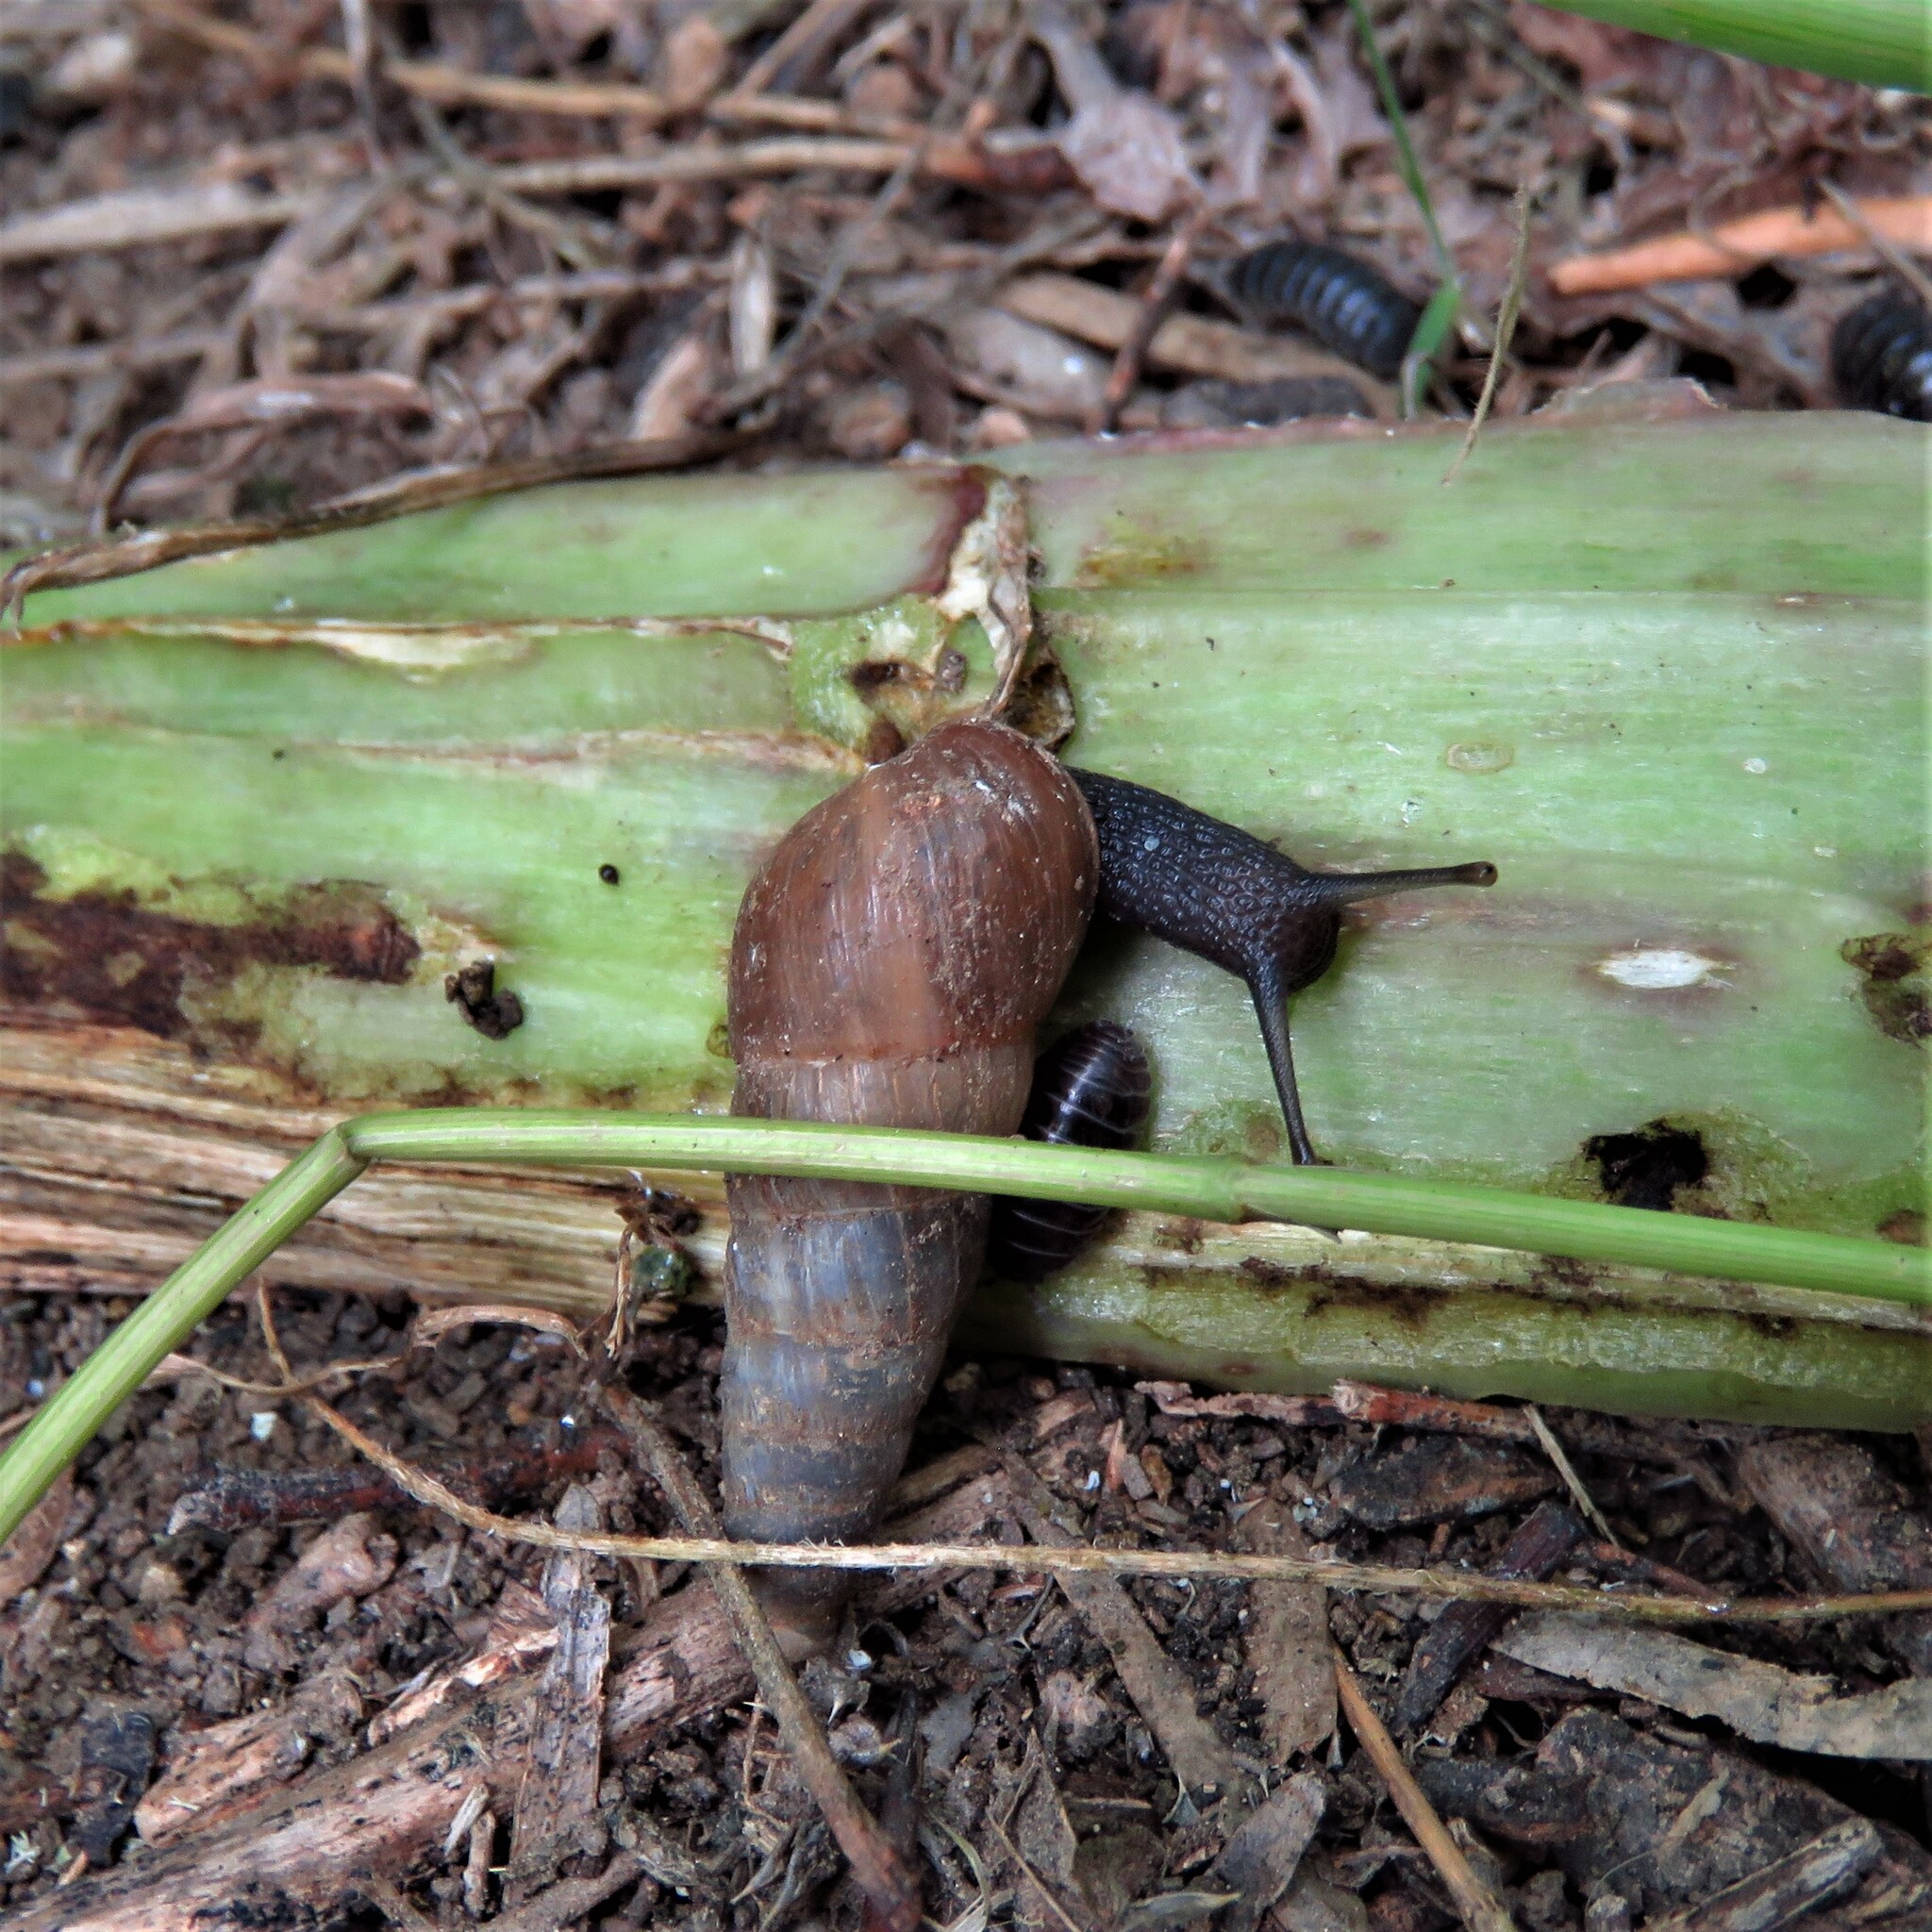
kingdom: Animalia
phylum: Mollusca
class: Gastropoda
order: Stylommatophora
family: Achatinidae
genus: Rumina
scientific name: Rumina decollata
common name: Decollate snail
